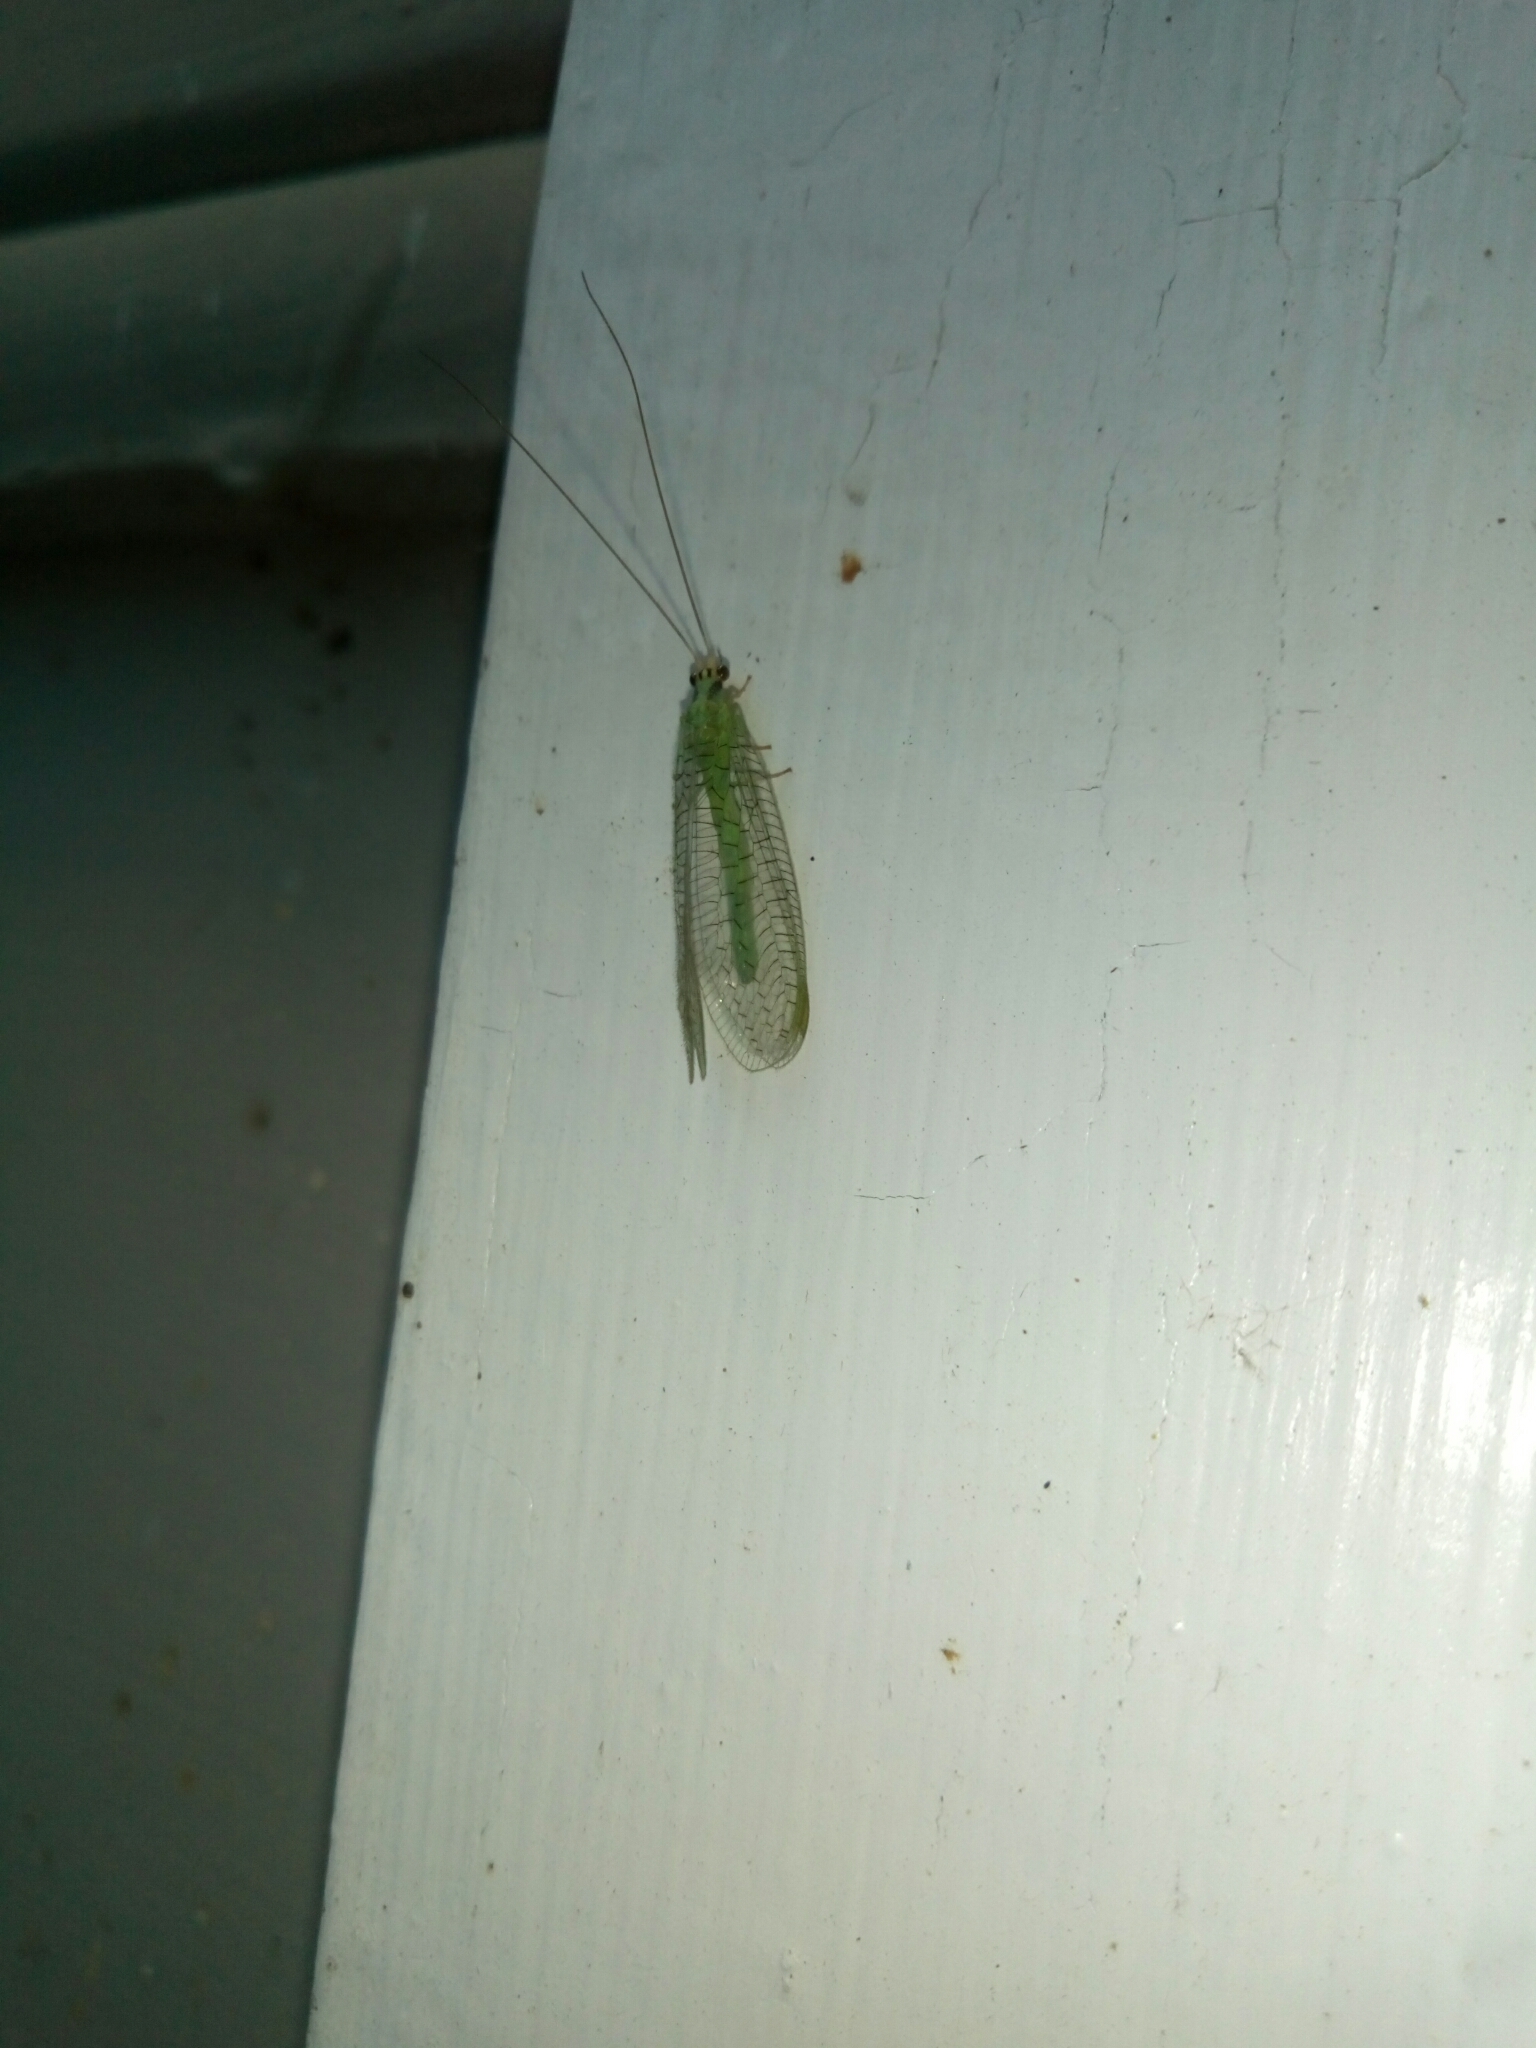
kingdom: Animalia
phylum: Arthropoda
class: Insecta
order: Neuroptera
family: Chrysopidae
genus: Chrysopa
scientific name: Chrysopa incompleta
